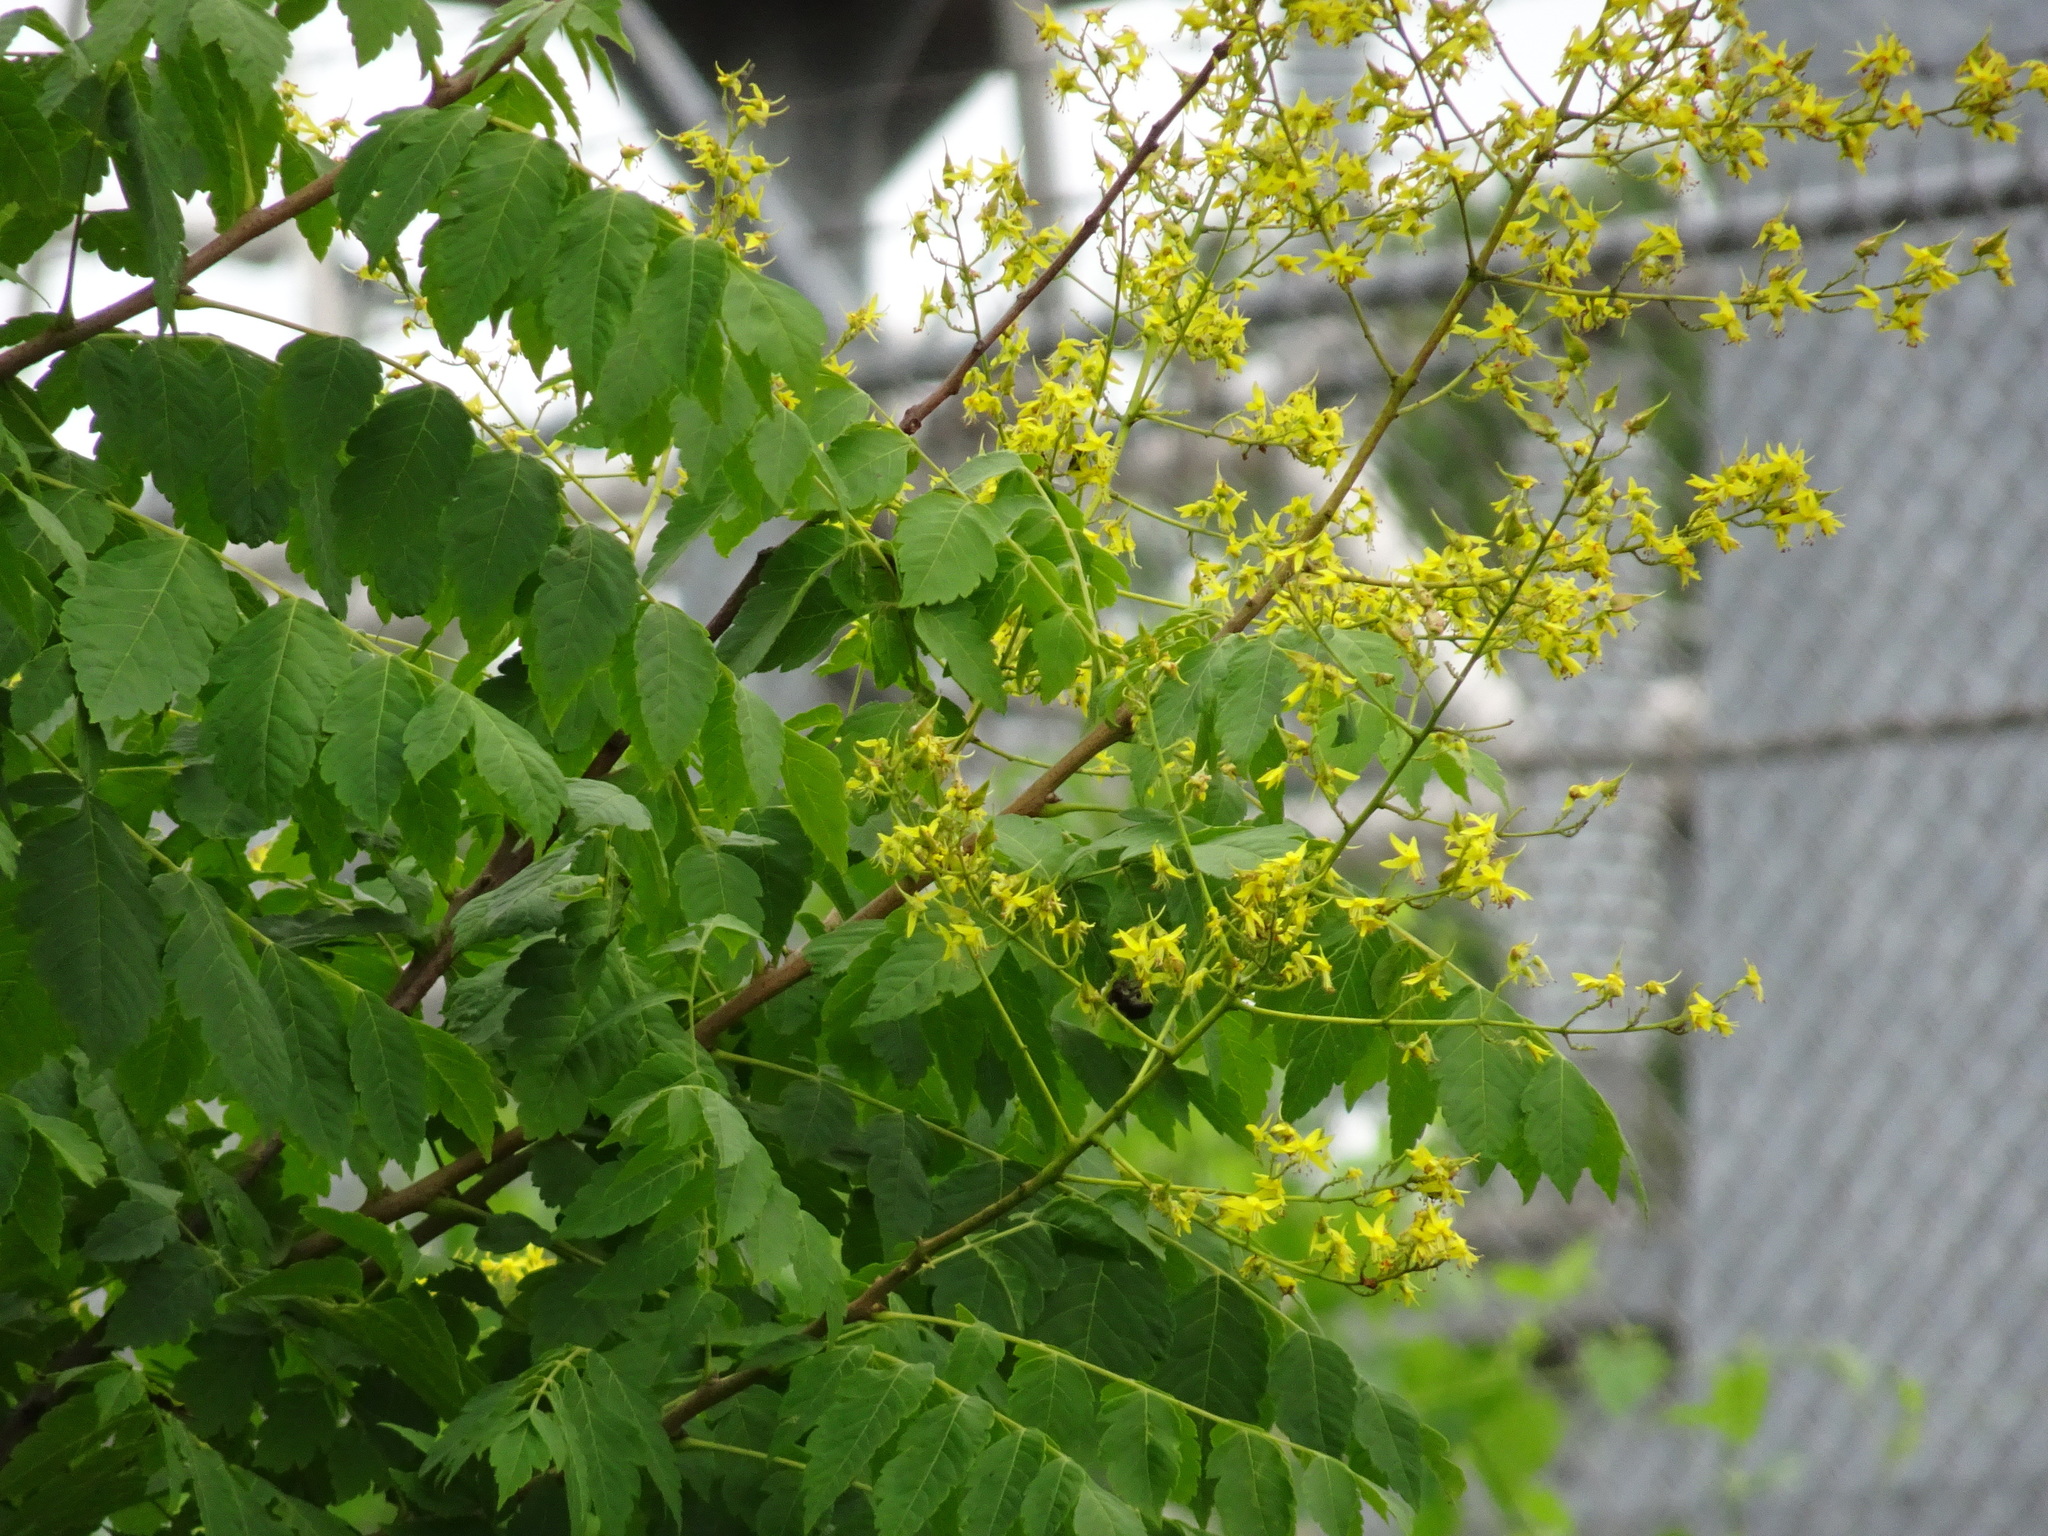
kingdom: Plantae
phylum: Tracheophyta
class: Magnoliopsida
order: Sapindales
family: Sapindaceae
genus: Koelreuteria
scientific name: Koelreuteria paniculata
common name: Pride-of-india
